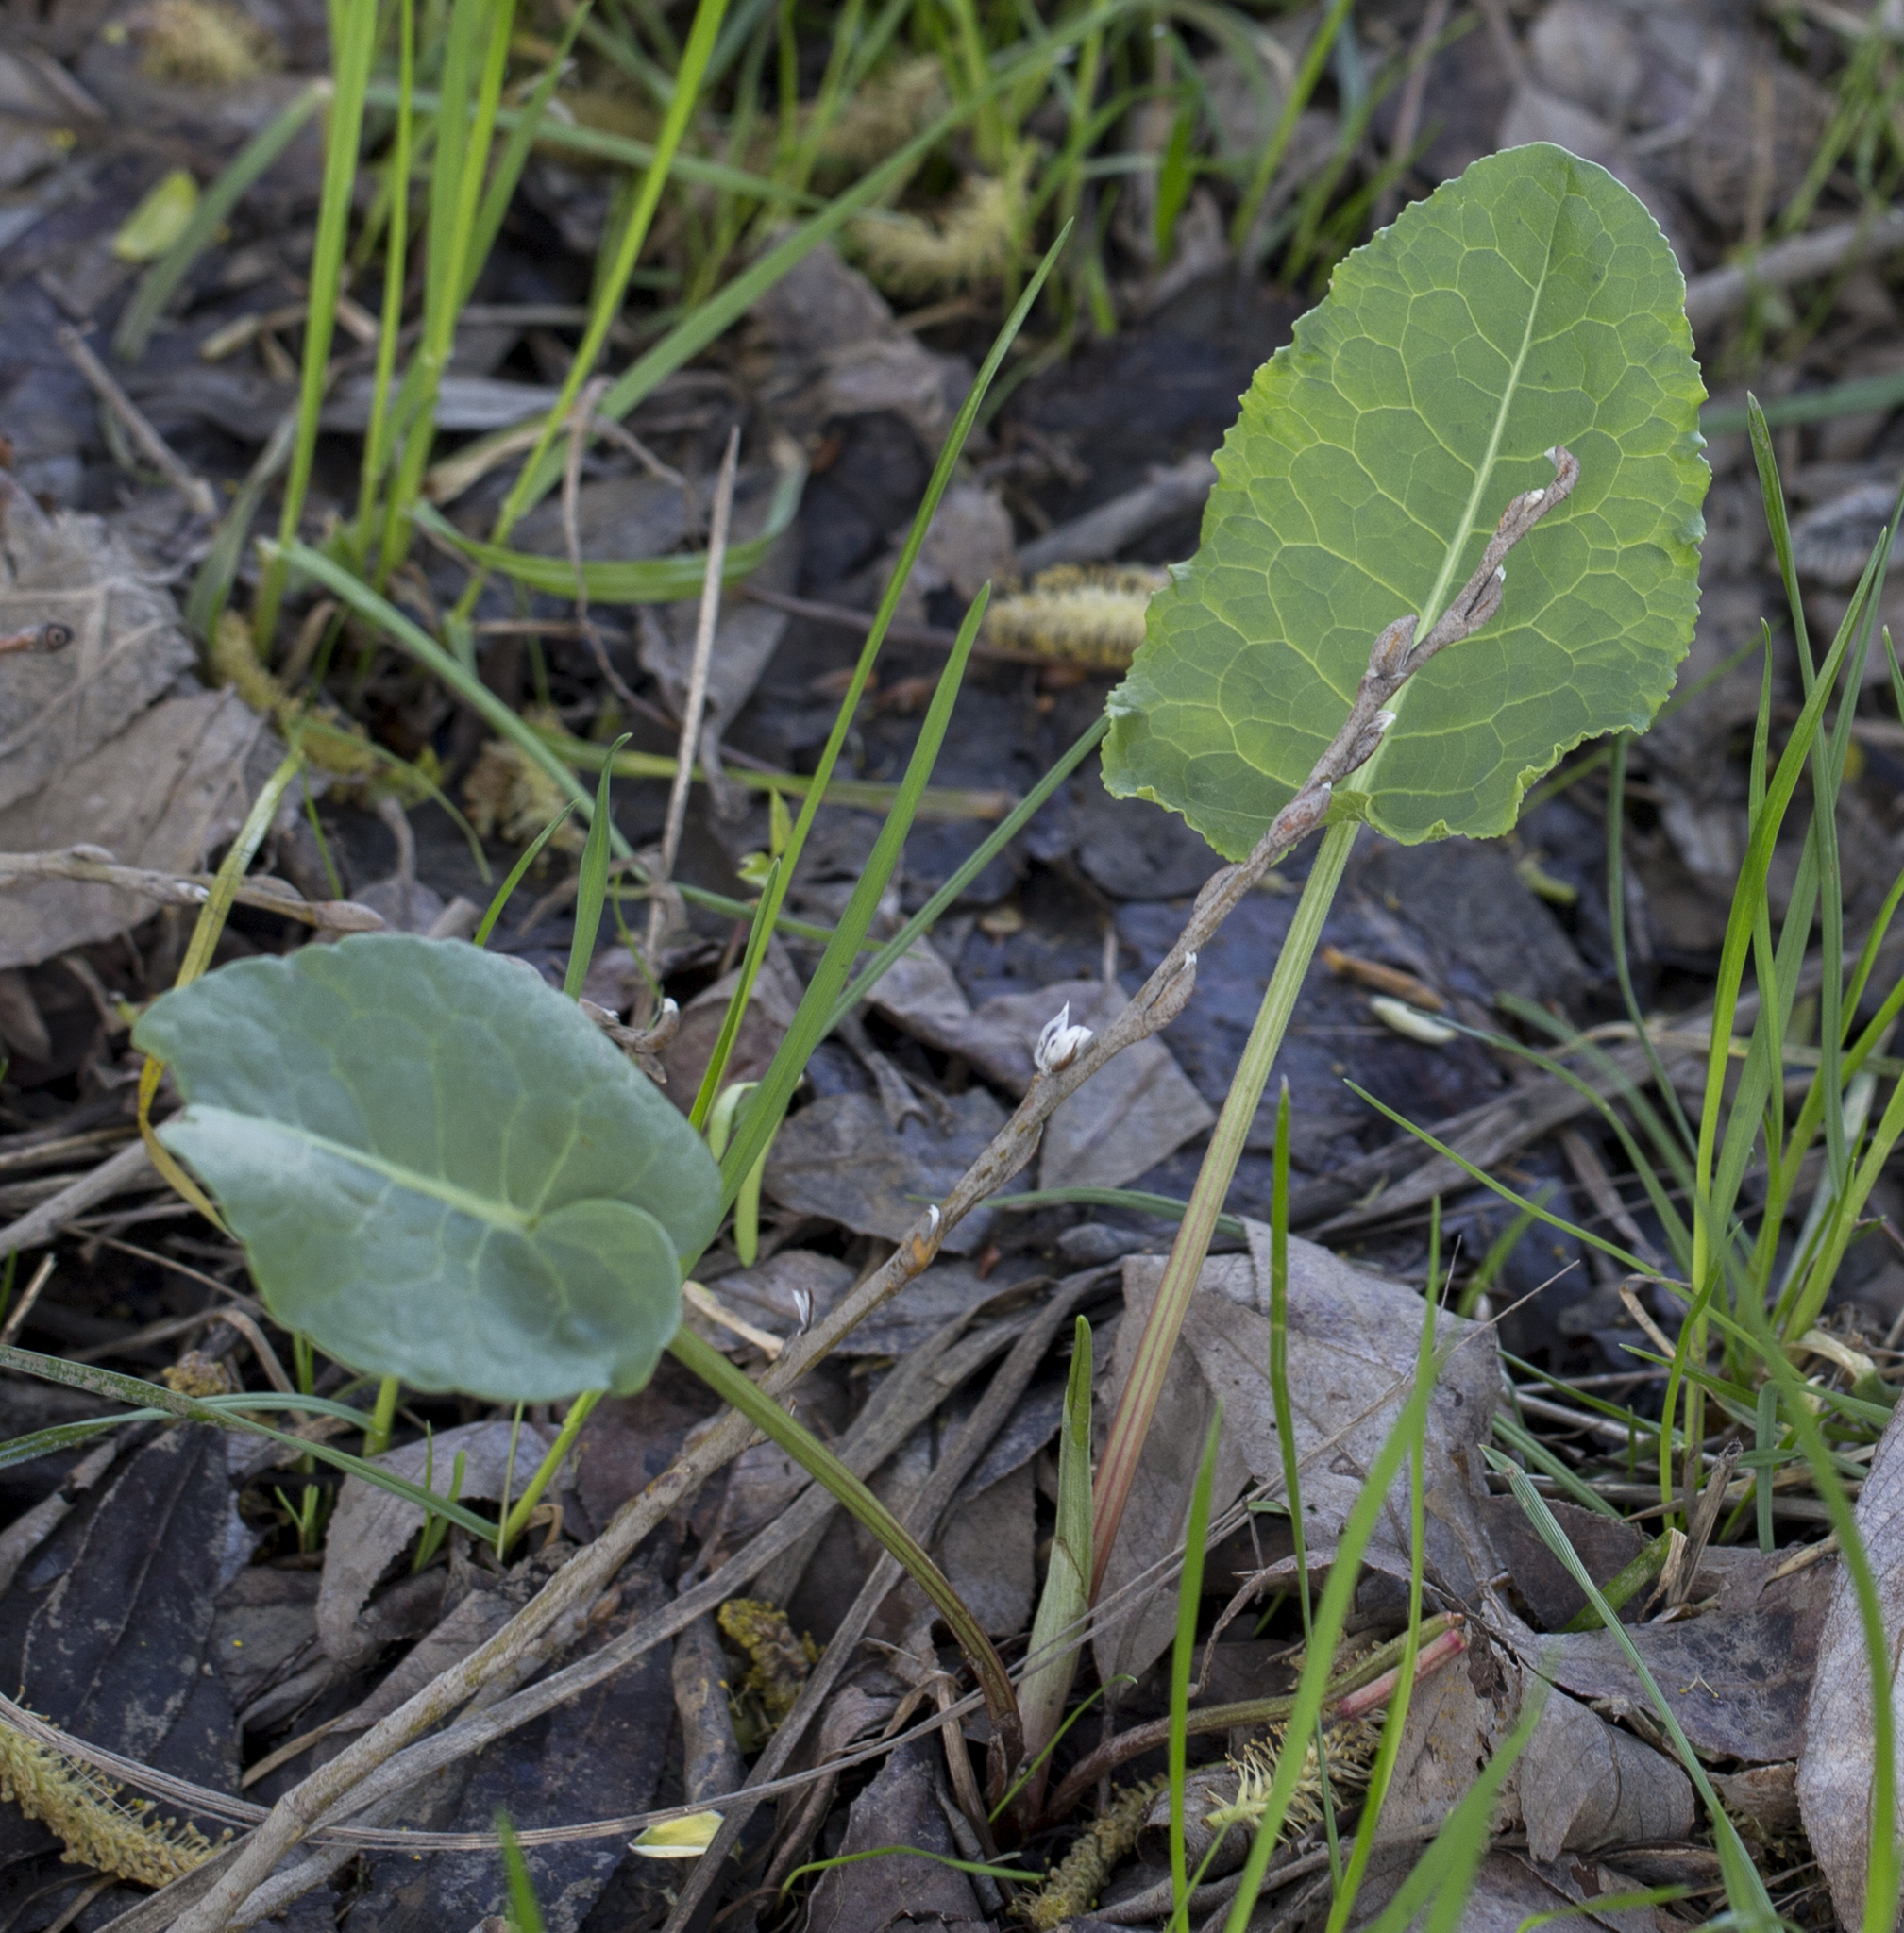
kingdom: Plantae
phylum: Tracheophyta
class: Magnoliopsida
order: Caryophyllales
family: Polygonaceae
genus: Rumex
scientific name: Rumex confertus
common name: Russian dock
